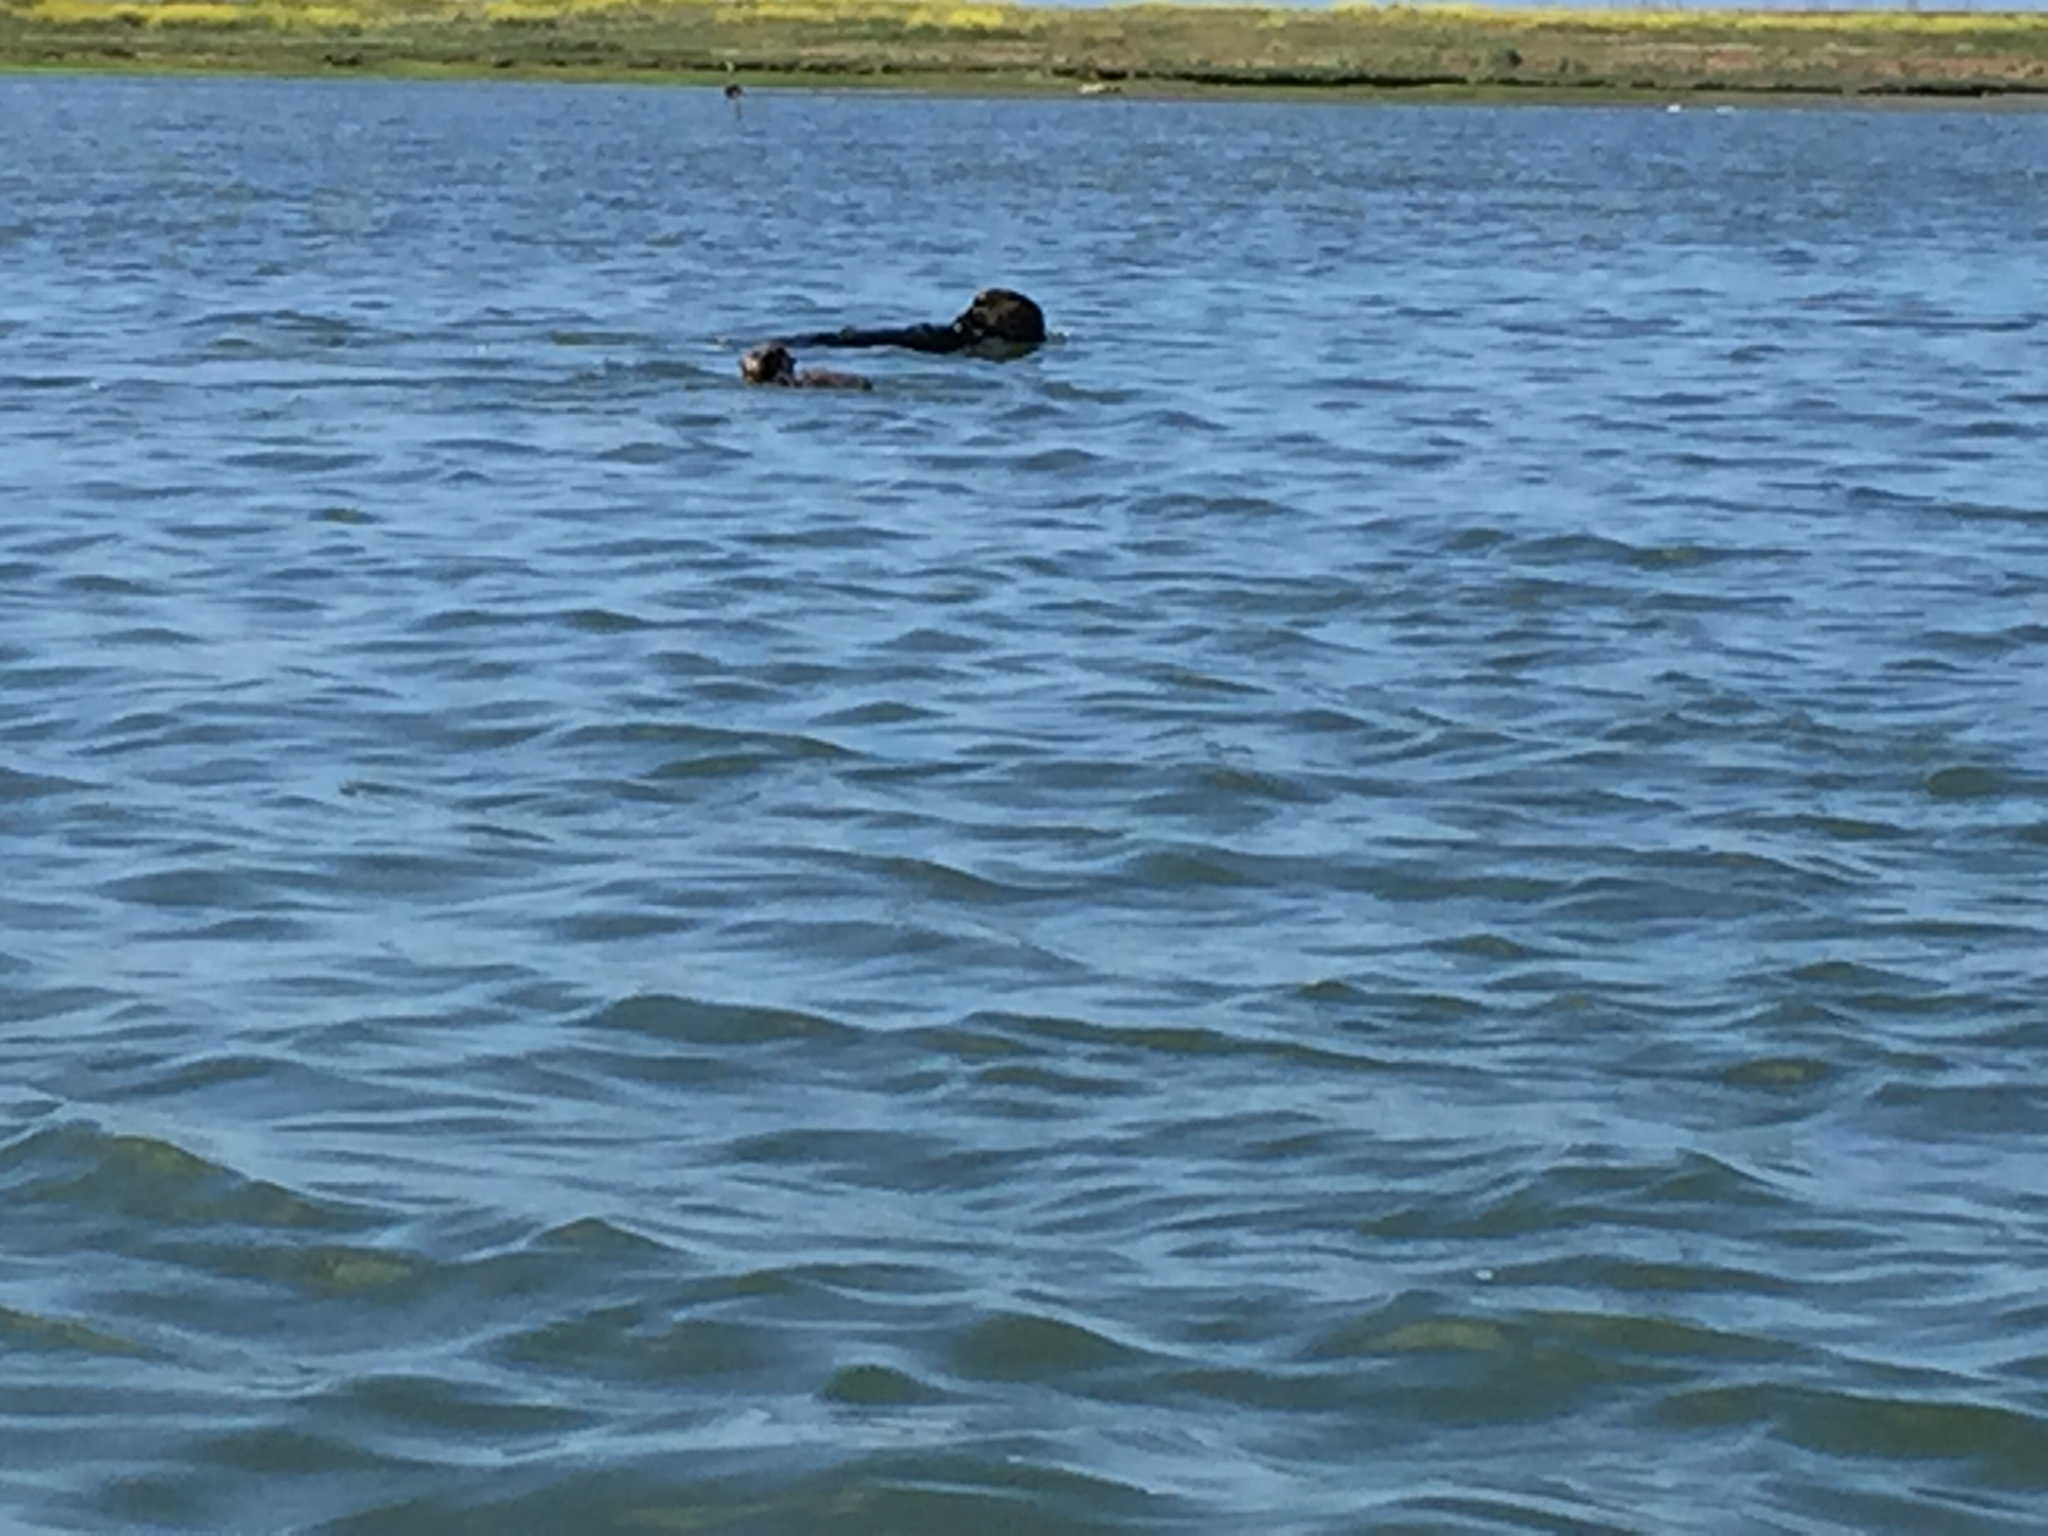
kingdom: Animalia
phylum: Chordata
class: Mammalia
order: Carnivora
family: Mustelidae
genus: Enhydra
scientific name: Enhydra lutris
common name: Sea otter
